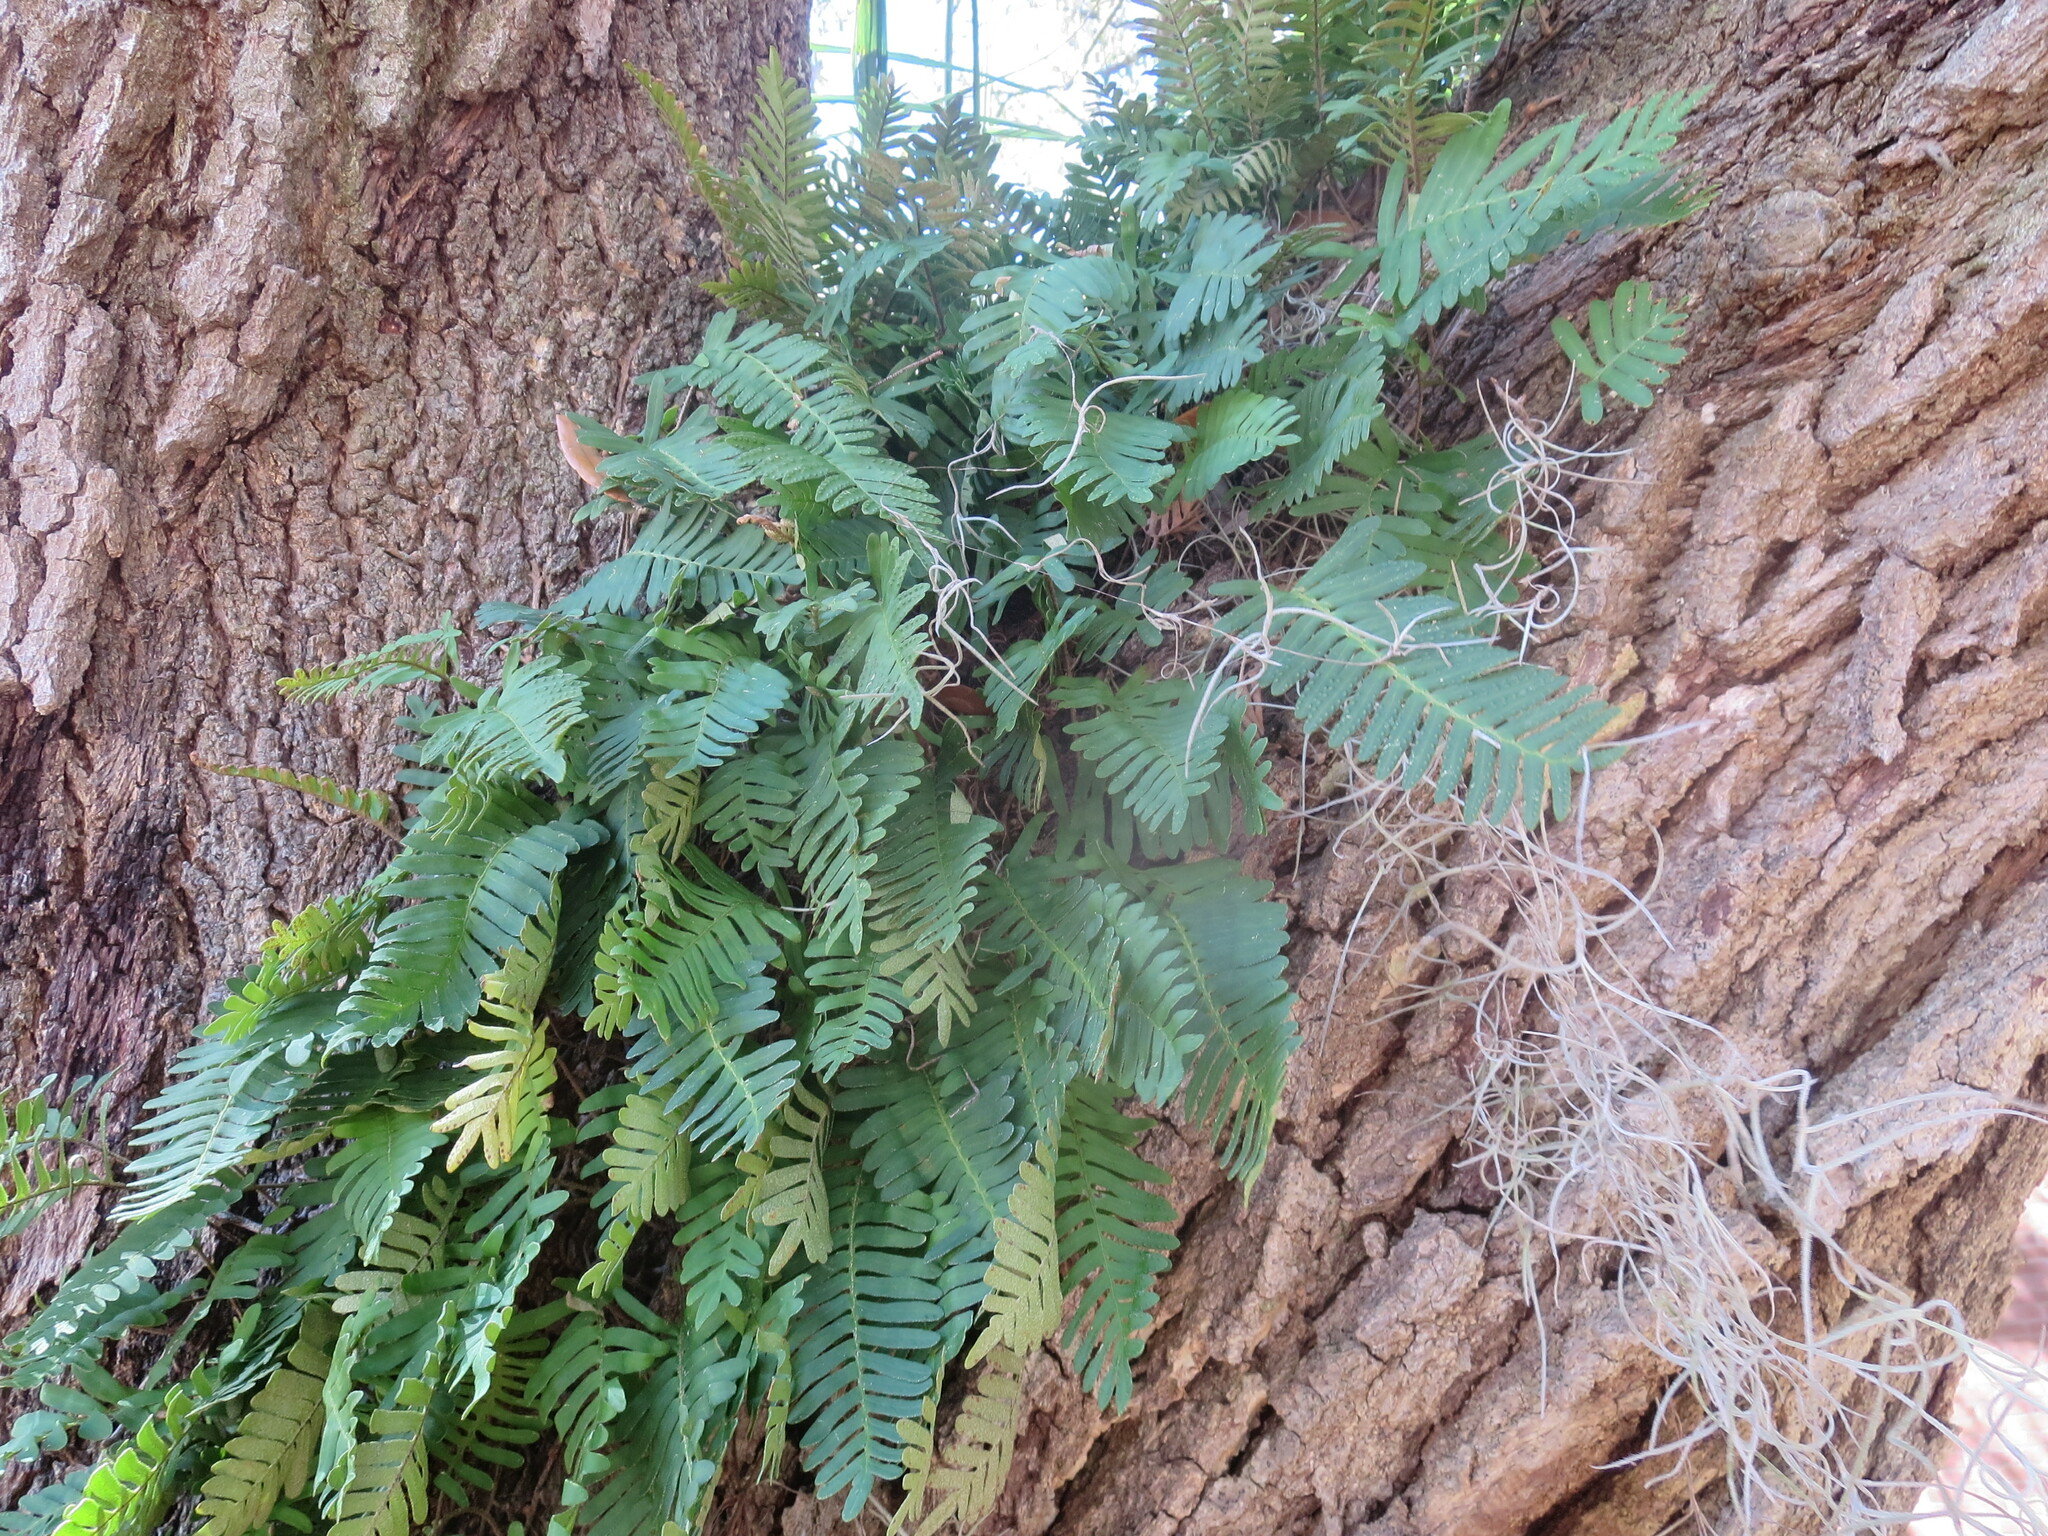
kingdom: Plantae
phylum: Tracheophyta
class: Polypodiopsida
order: Polypodiales
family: Polypodiaceae
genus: Pleopeltis
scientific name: Pleopeltis michauxiana
